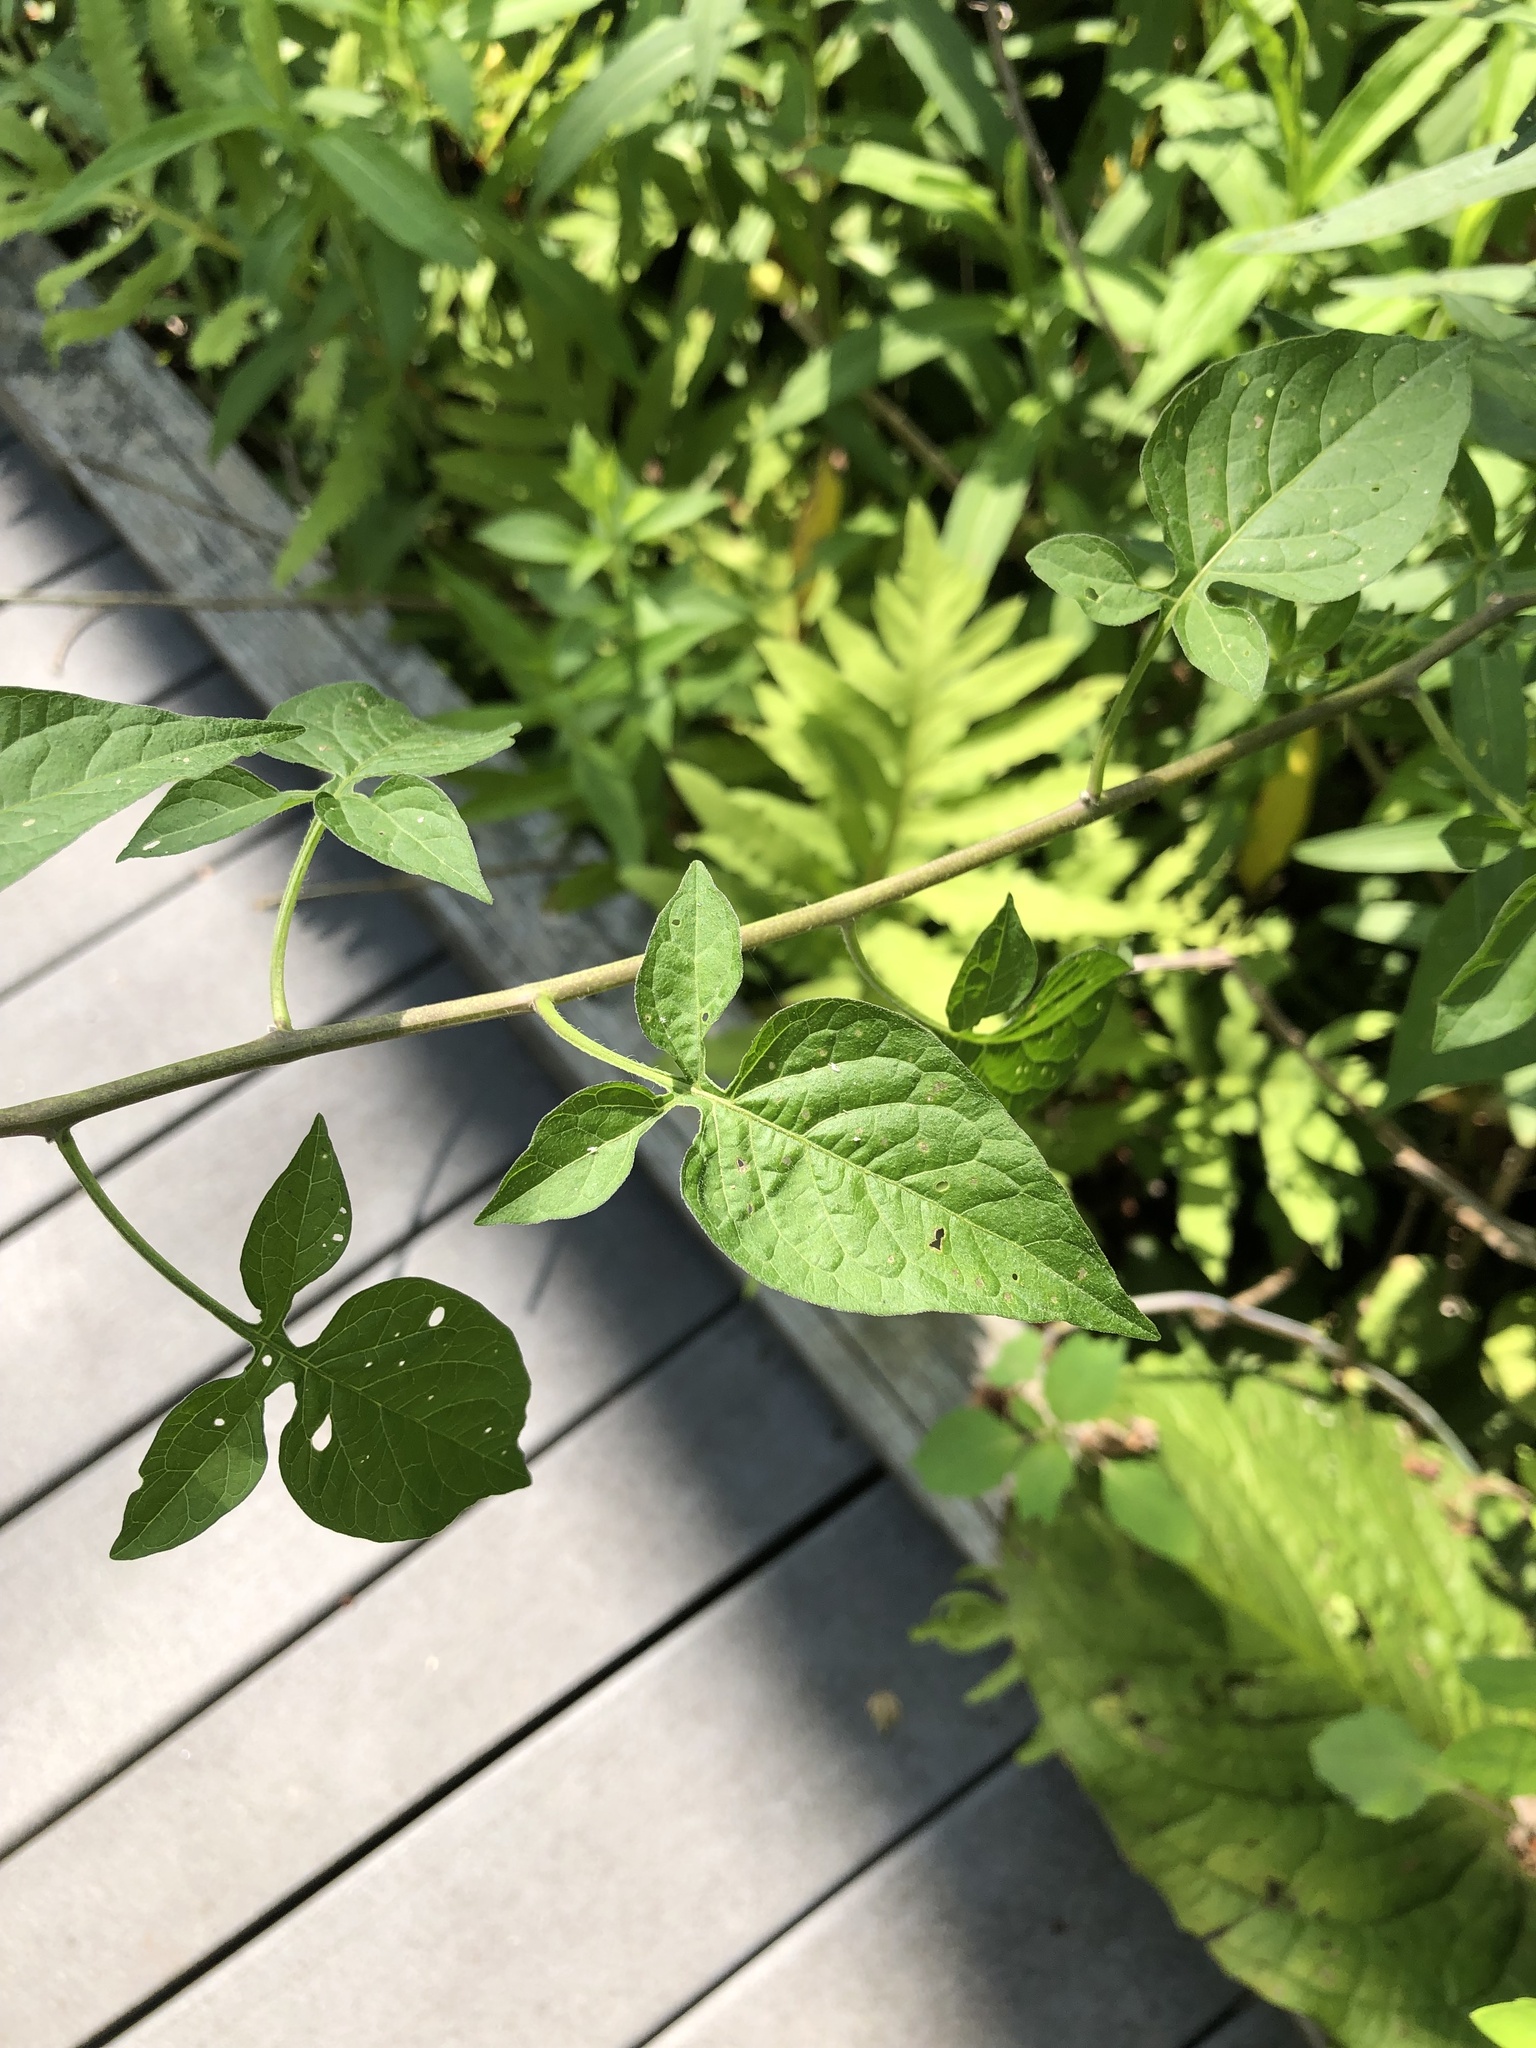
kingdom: Plantae
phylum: Tracheophyta
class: Magnoliopsida
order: Solanales
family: Solanaceae
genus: Solanum
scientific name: Solanum dulcamara
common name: Climbing nightshade
